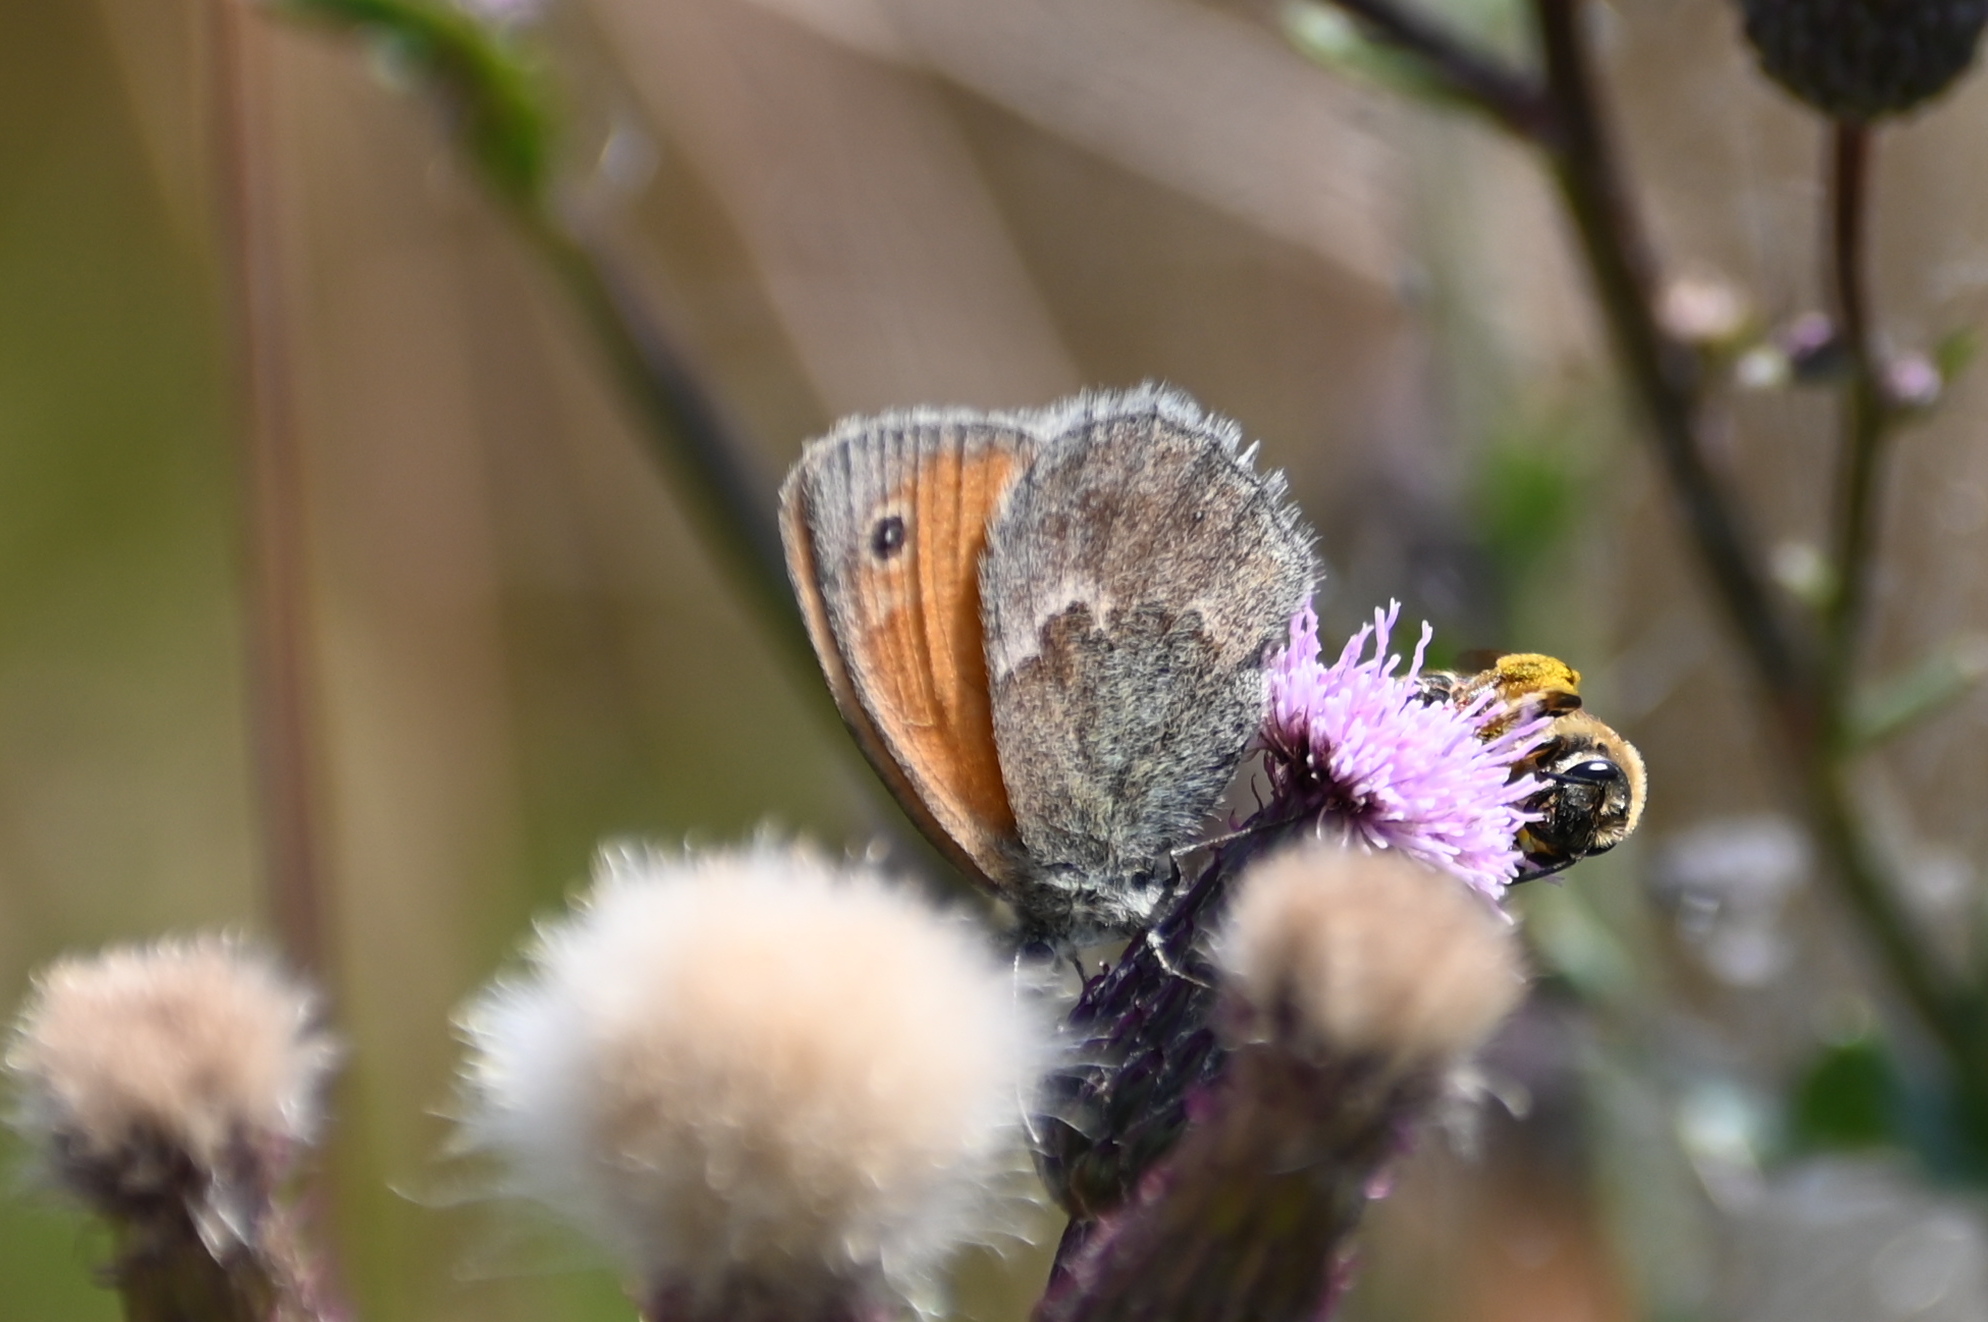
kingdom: Animalia
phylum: Arthropoda
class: Insecta
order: Lepidoptera
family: Nymphalidae
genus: Coenonympha
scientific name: Coenonympha pamphilus
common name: Small heath
